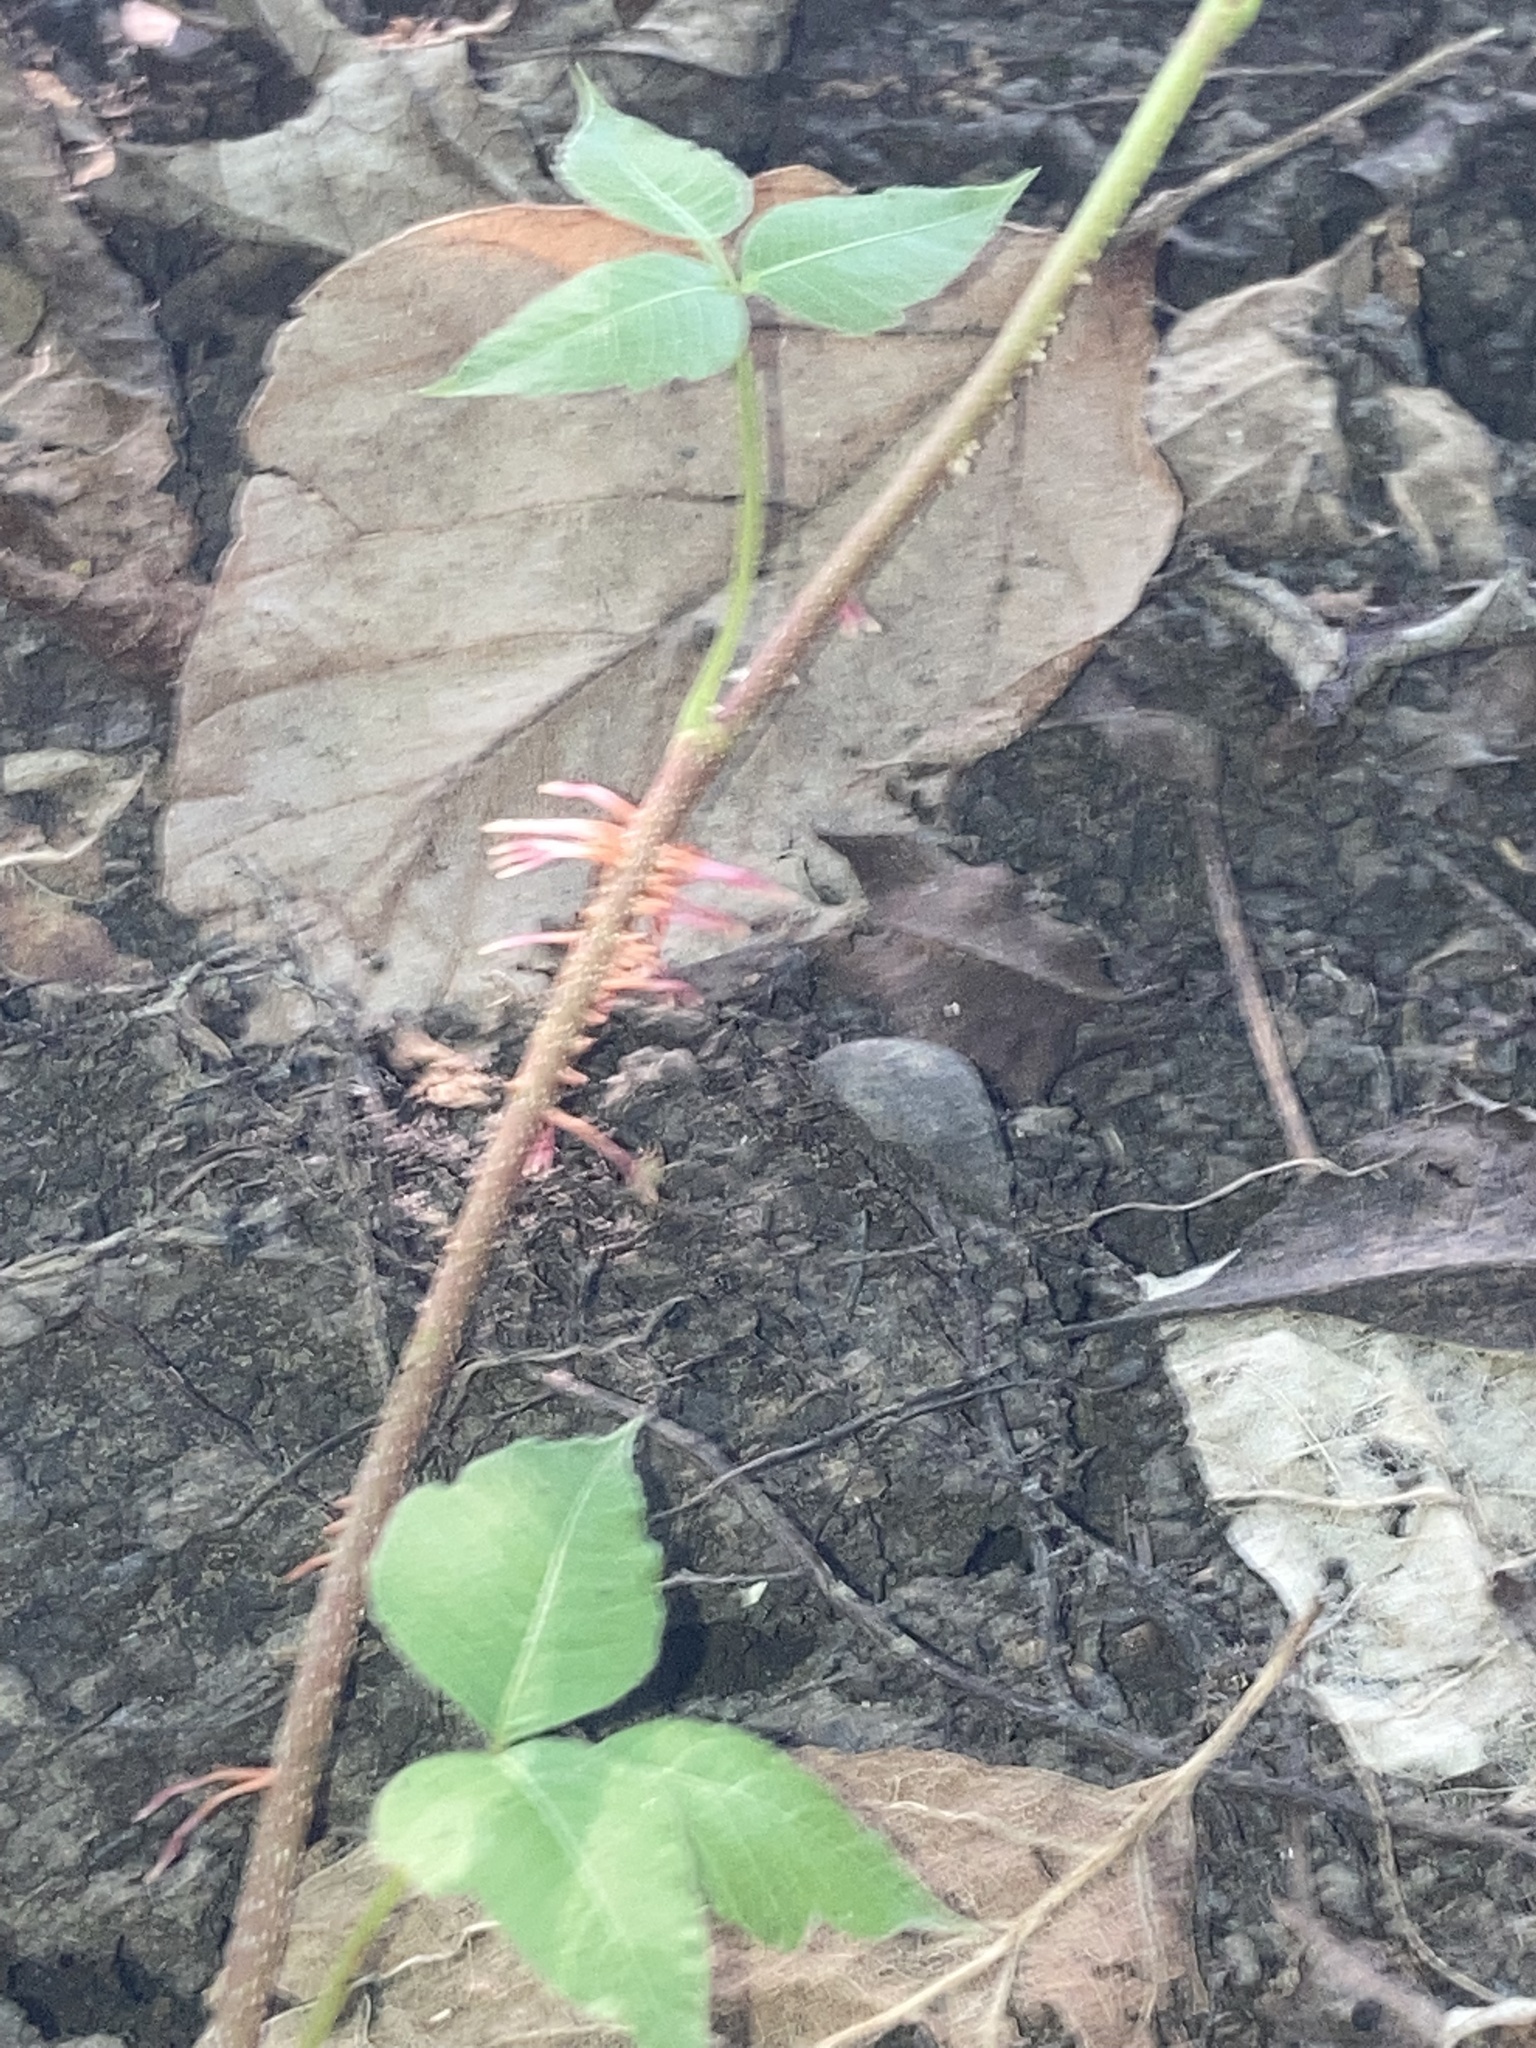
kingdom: Plantae
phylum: Tracheophyta
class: Magnoliopsida
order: Sapindales
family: Anacardiaceae
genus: Toxicodendron
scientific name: Toxicodendron radicans
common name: Poison ivy
